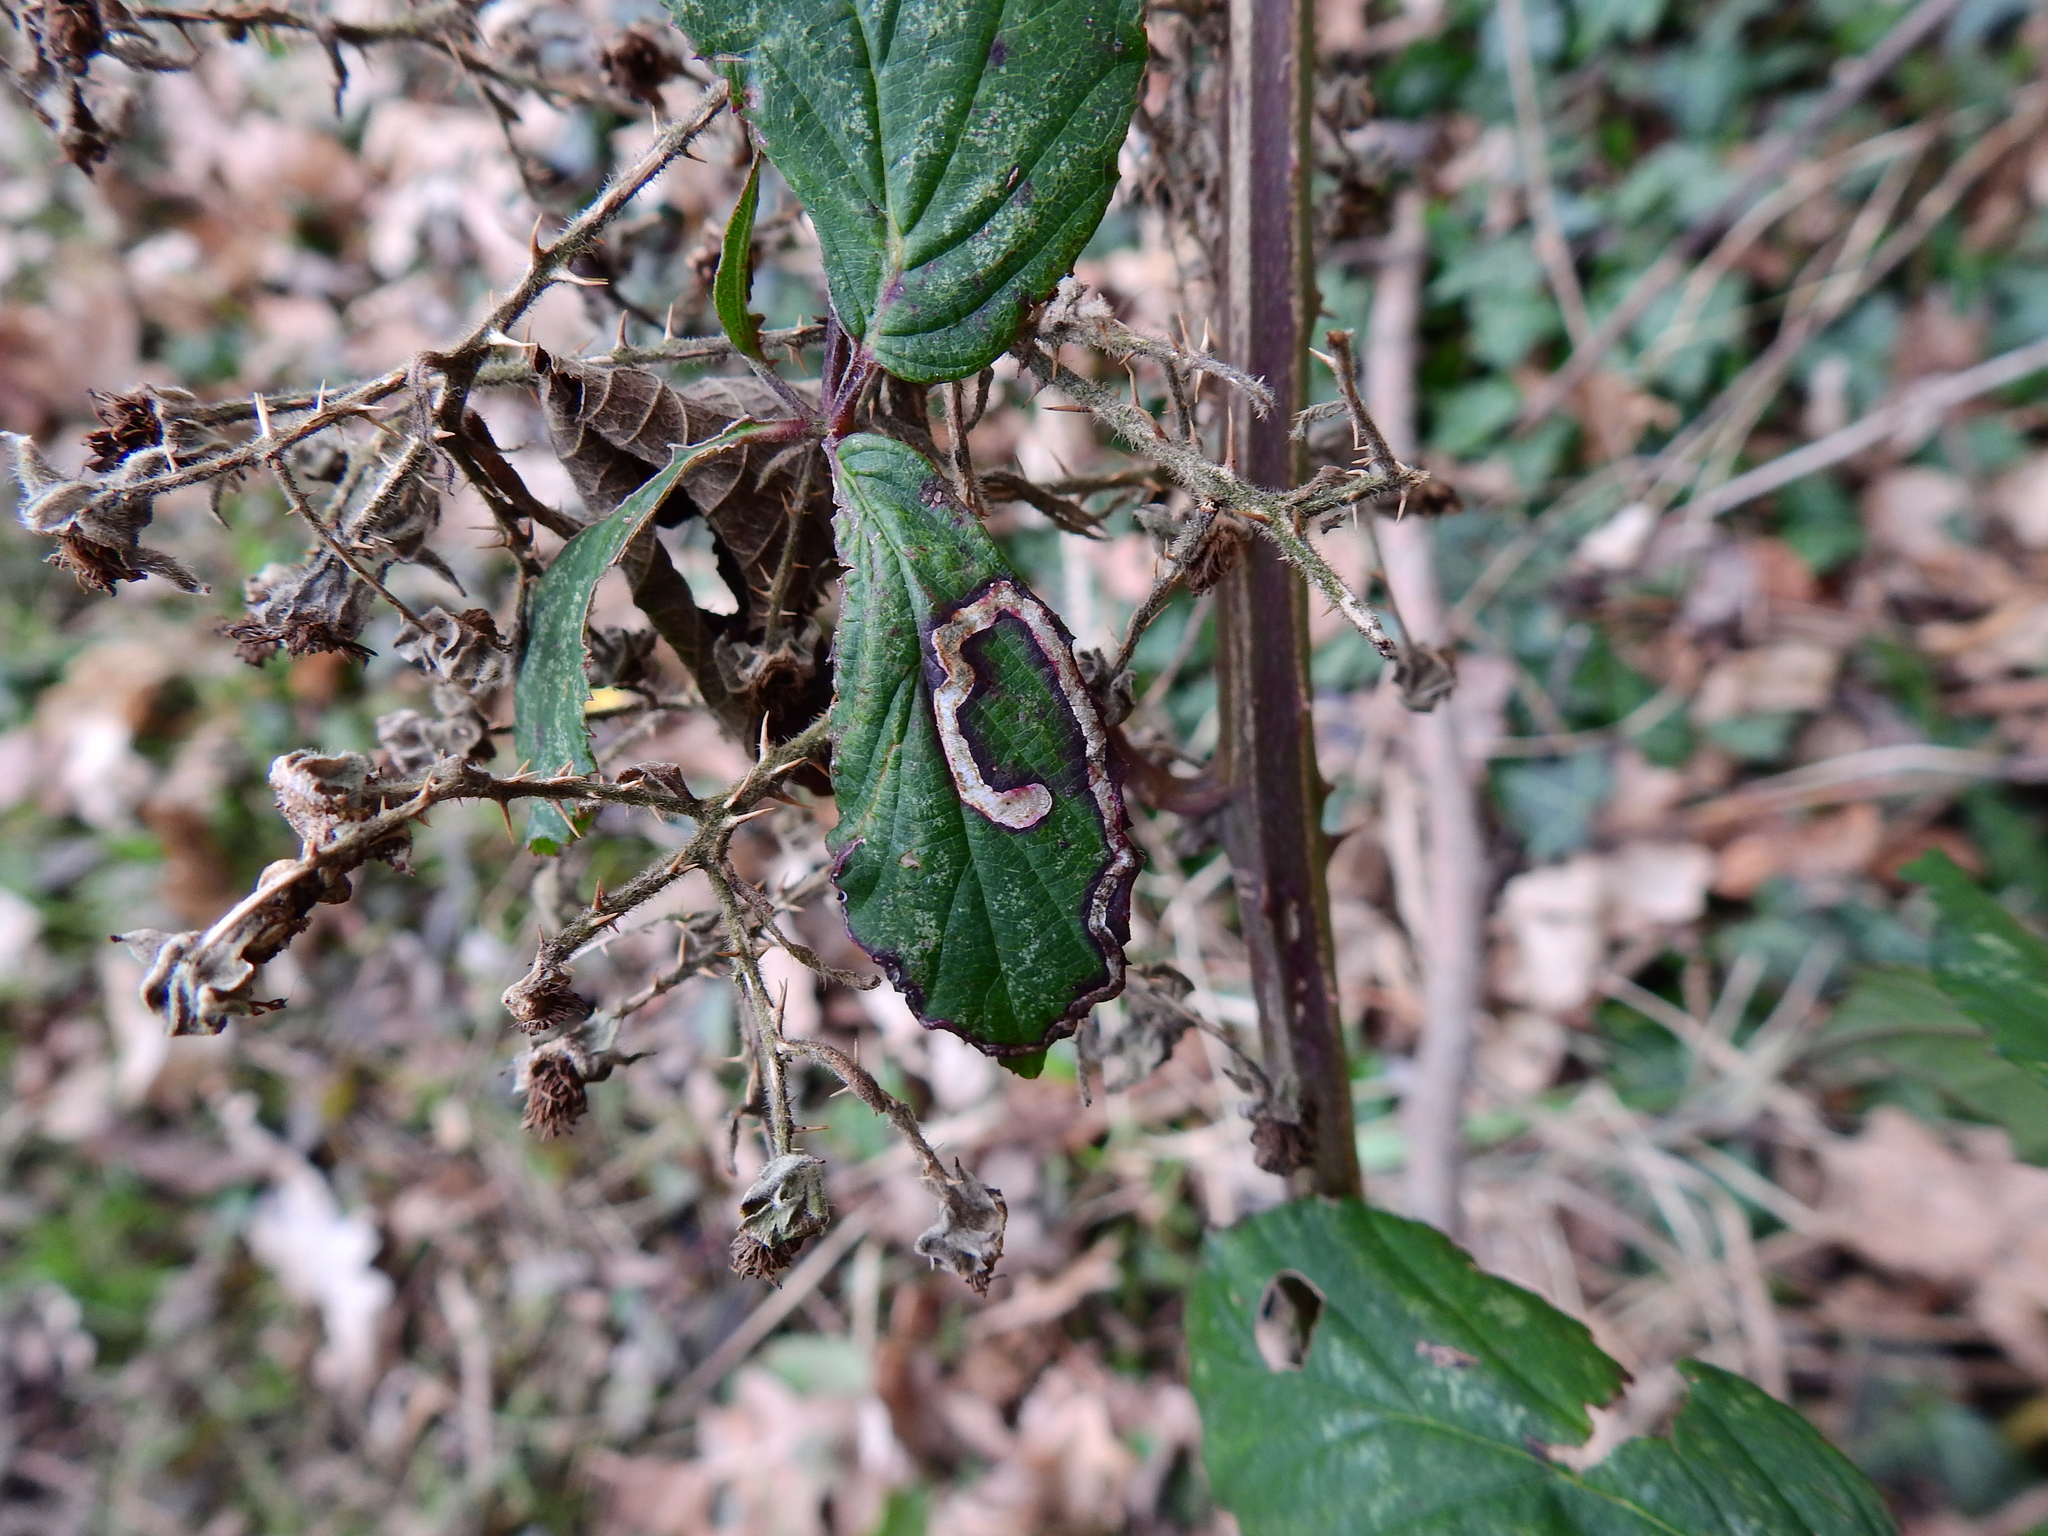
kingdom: Animalia
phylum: Arthropoda
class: Insecta
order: Lepidoptera
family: Nepticulidae
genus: Stigmella
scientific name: Stigmella aurella
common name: Golden pigmy
